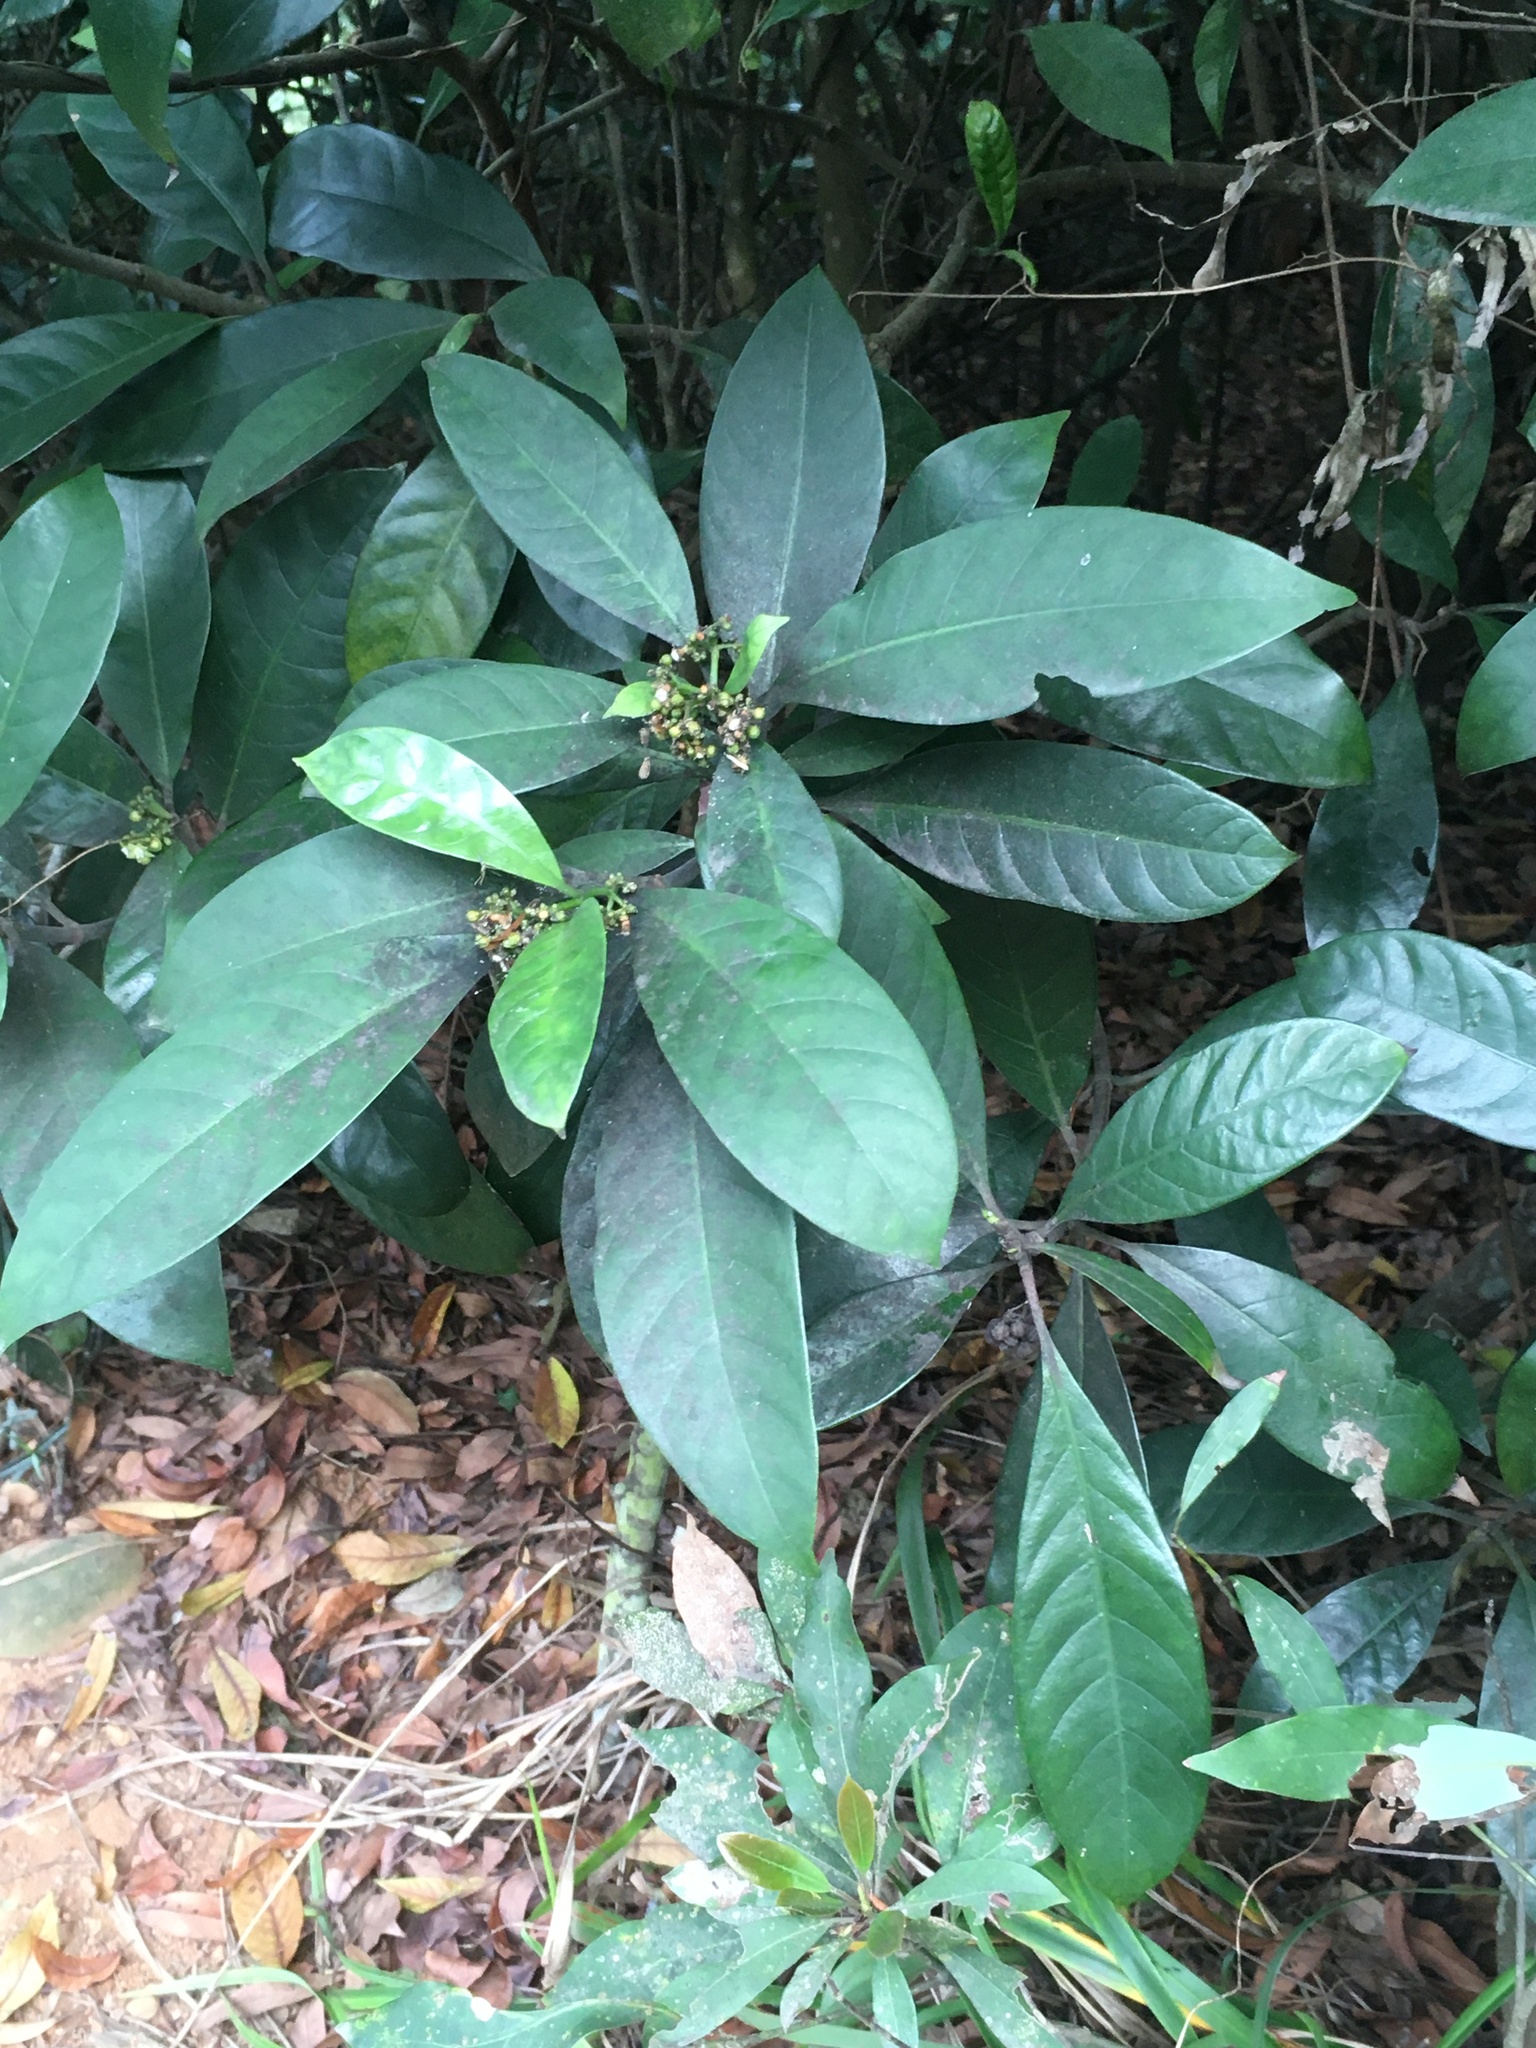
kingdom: Plantae
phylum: Tracheophyta
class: Magnoliopsida
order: Gentianales
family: Rubiaceae
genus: Psychotria
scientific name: Psychotria asiatica
